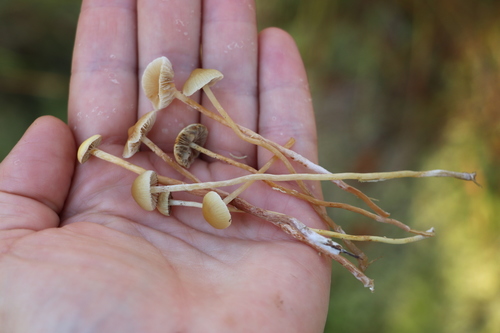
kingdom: Fungi
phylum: Basidiomycota
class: Agaricomycetes
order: Agaricales
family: Strophariaceae
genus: Hypholoma
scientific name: Hypholoma elongatum
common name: Sphagnum brownie
